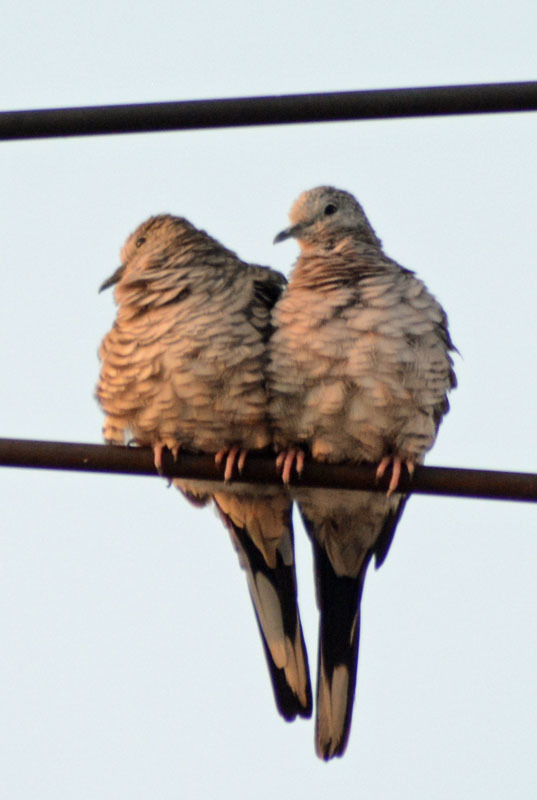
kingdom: Animalia
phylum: Chordata
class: Aves
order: Columbiformes
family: Columbidae
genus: Columbina
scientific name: Columbina inca
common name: Inca dove
